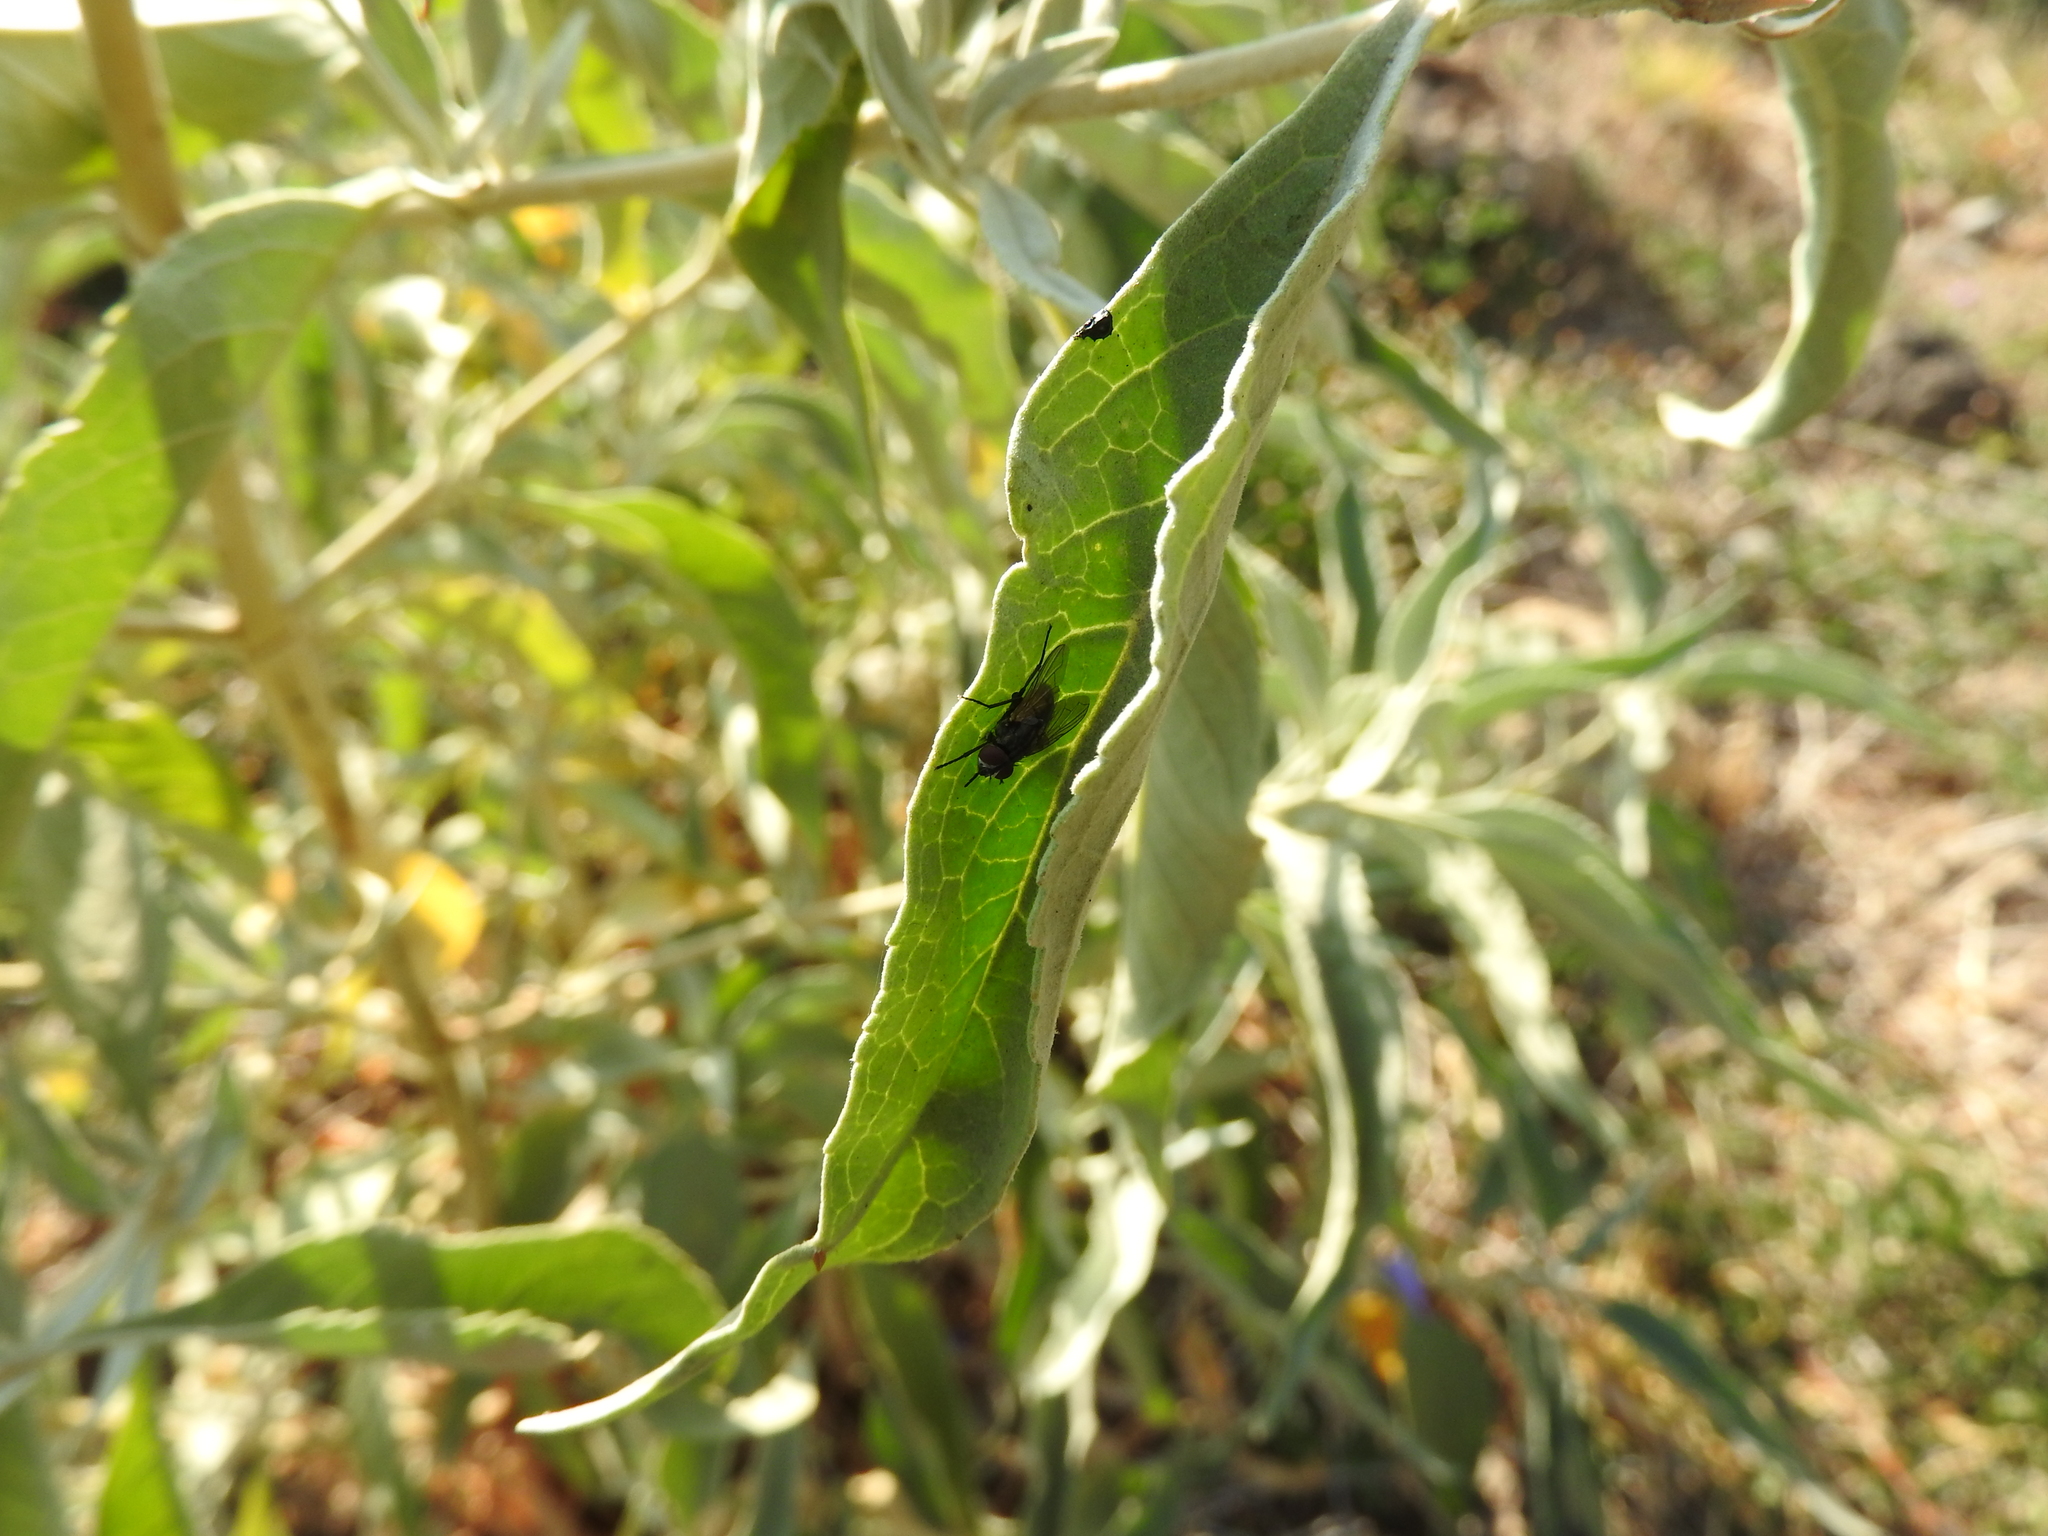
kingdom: Plantae
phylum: Tracheophyta
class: Magnoliopsida
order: Lamiales
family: Scrophulariaceae
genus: Buddleja
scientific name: Buddleja sessiliflora
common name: Rio grande butterfly-bush
